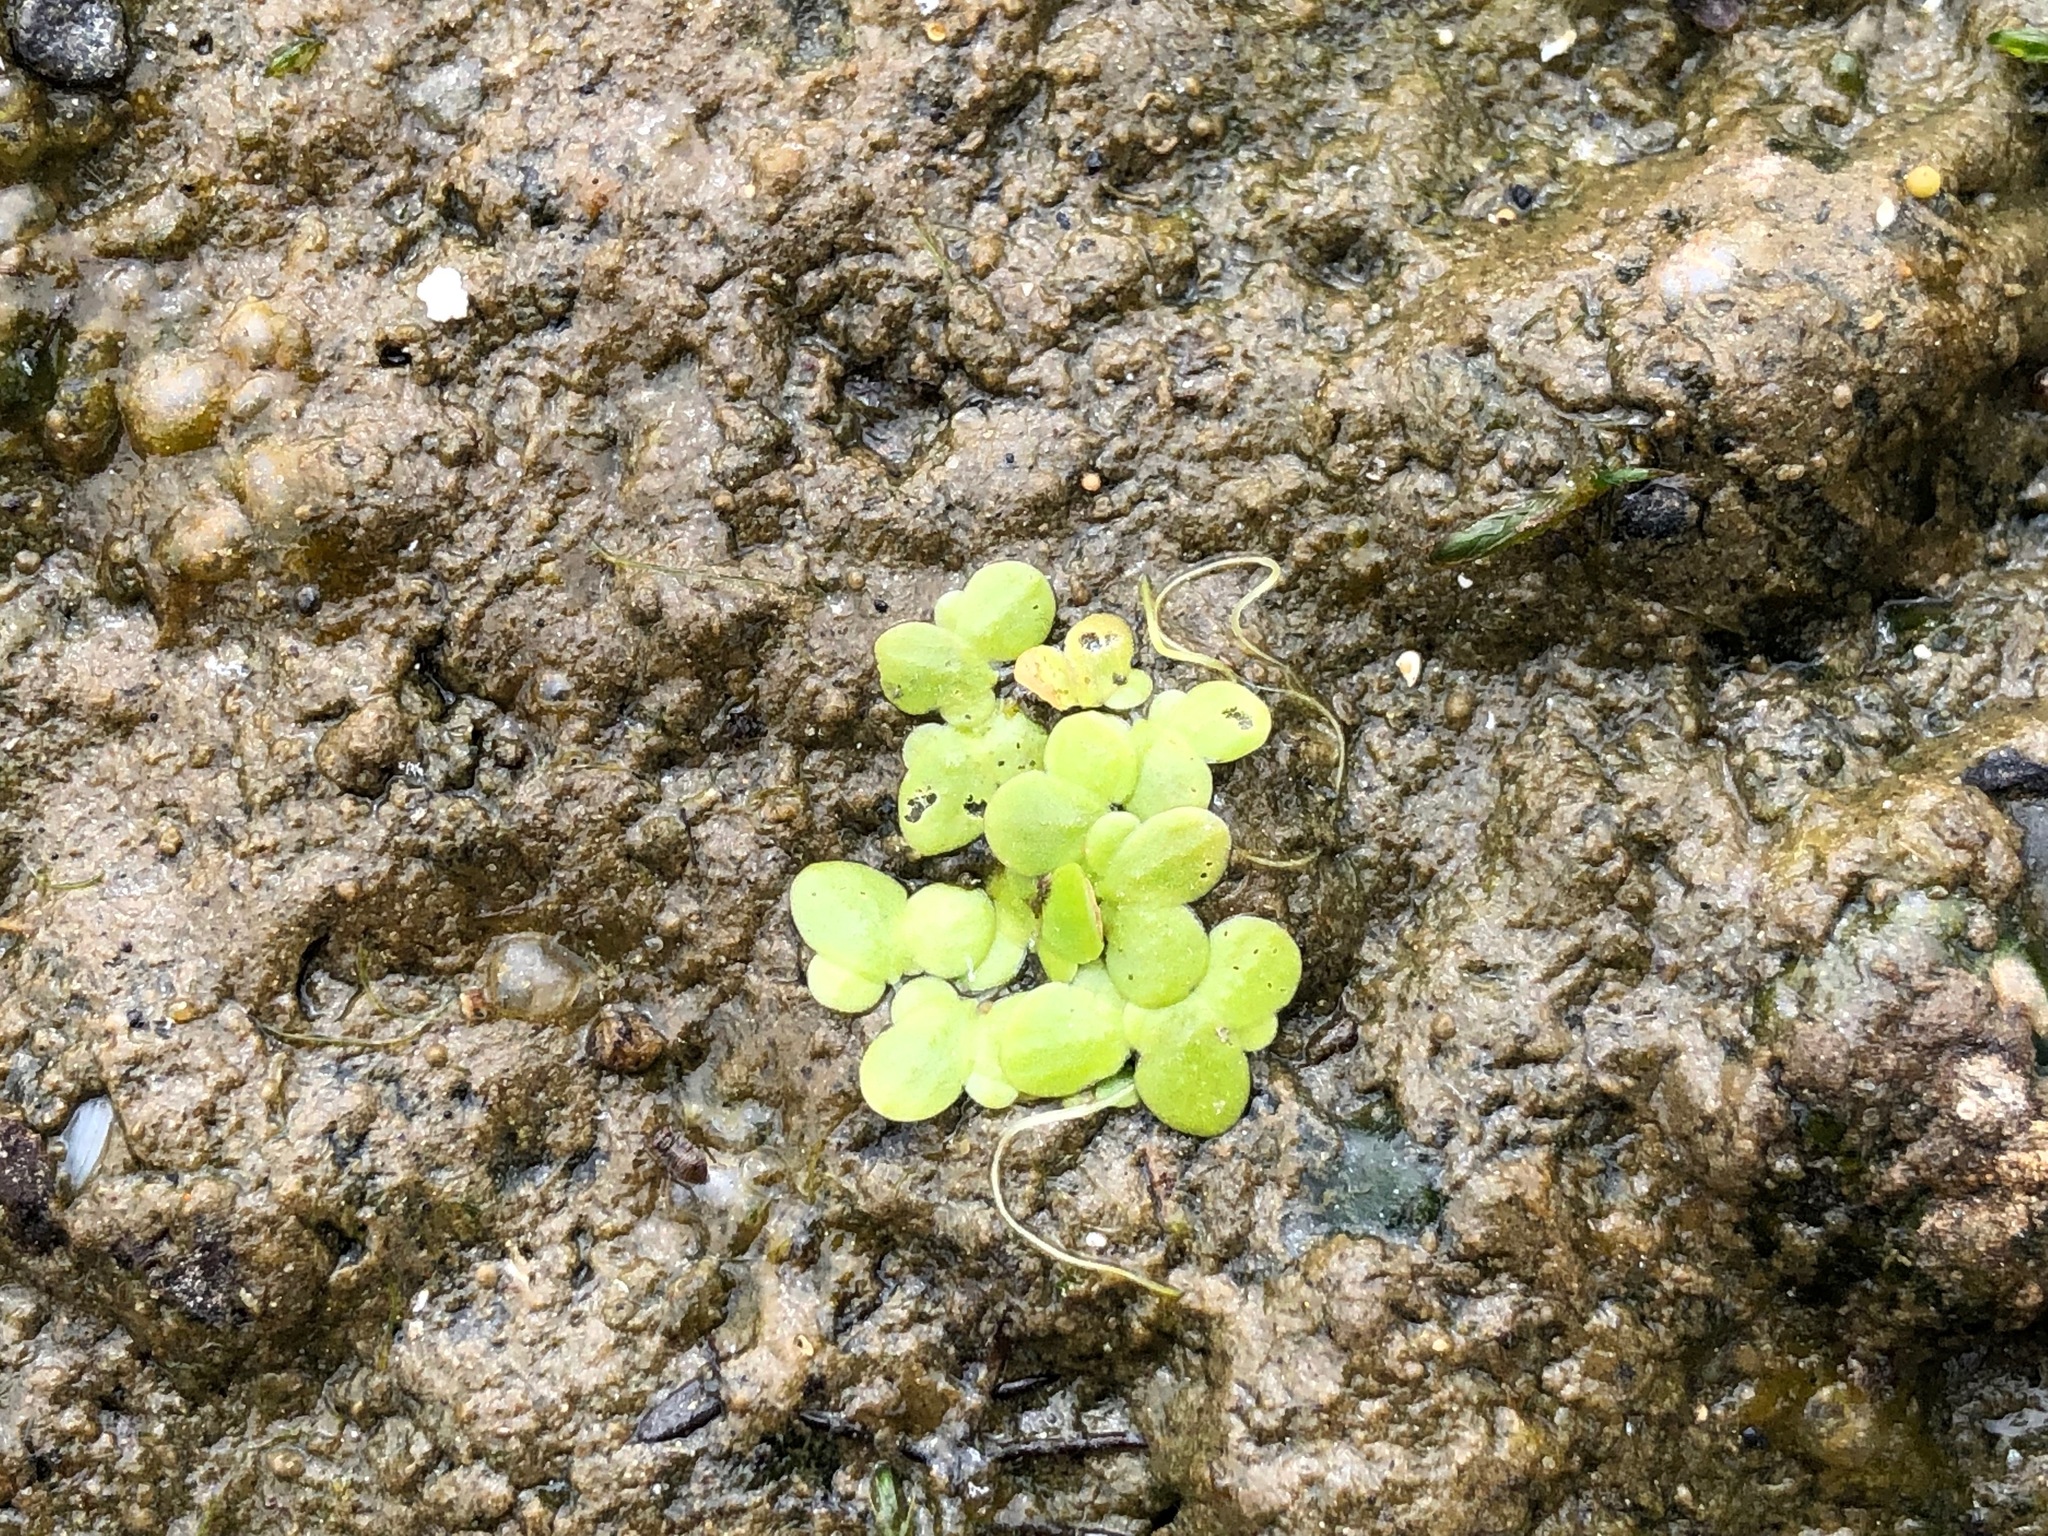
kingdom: Plantae
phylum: Tracheophyta
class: Liliopsida
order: Alismatales
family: Araceae
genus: Lemna
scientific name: Lemna minor
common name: Common duckweed
